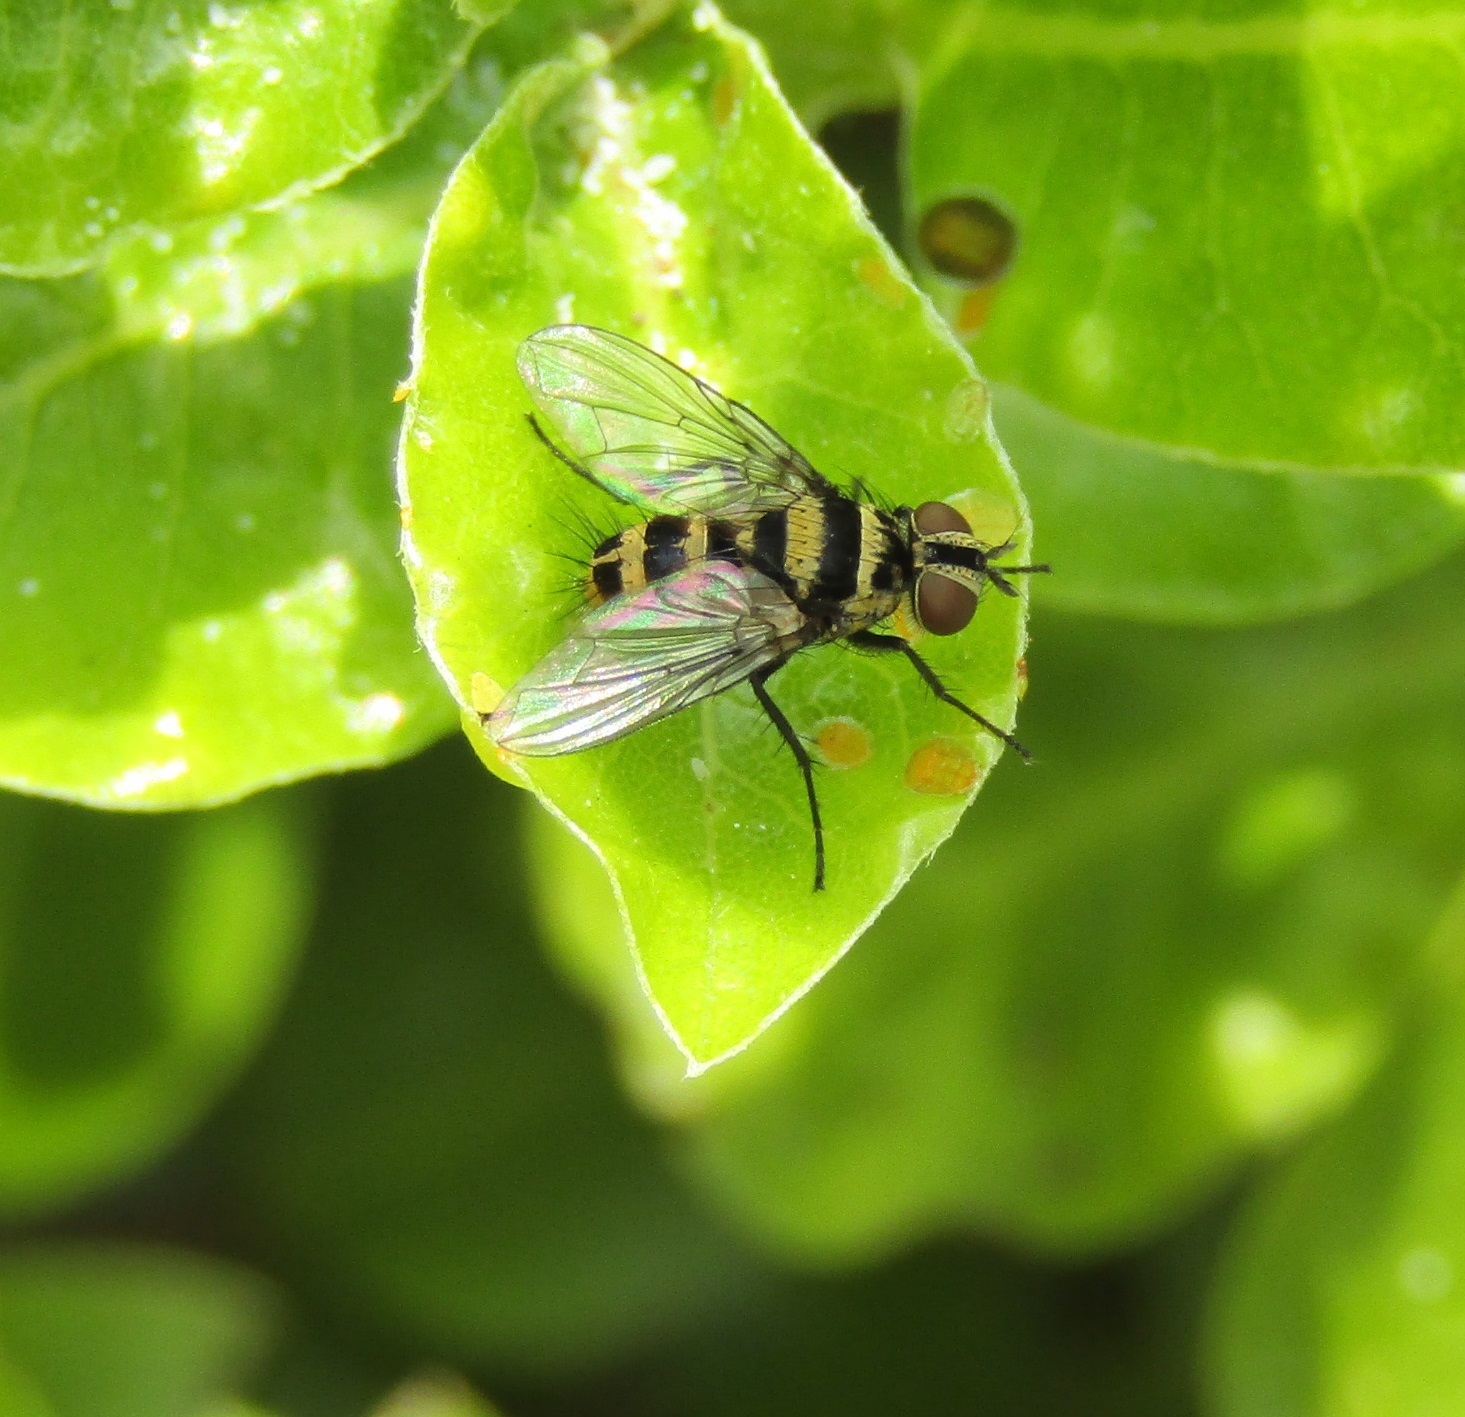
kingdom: Animalia
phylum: Arthropoda
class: Insecta
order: Diptera
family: Tachinidae
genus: Trigonospila
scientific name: Trigonospila brevifacies
